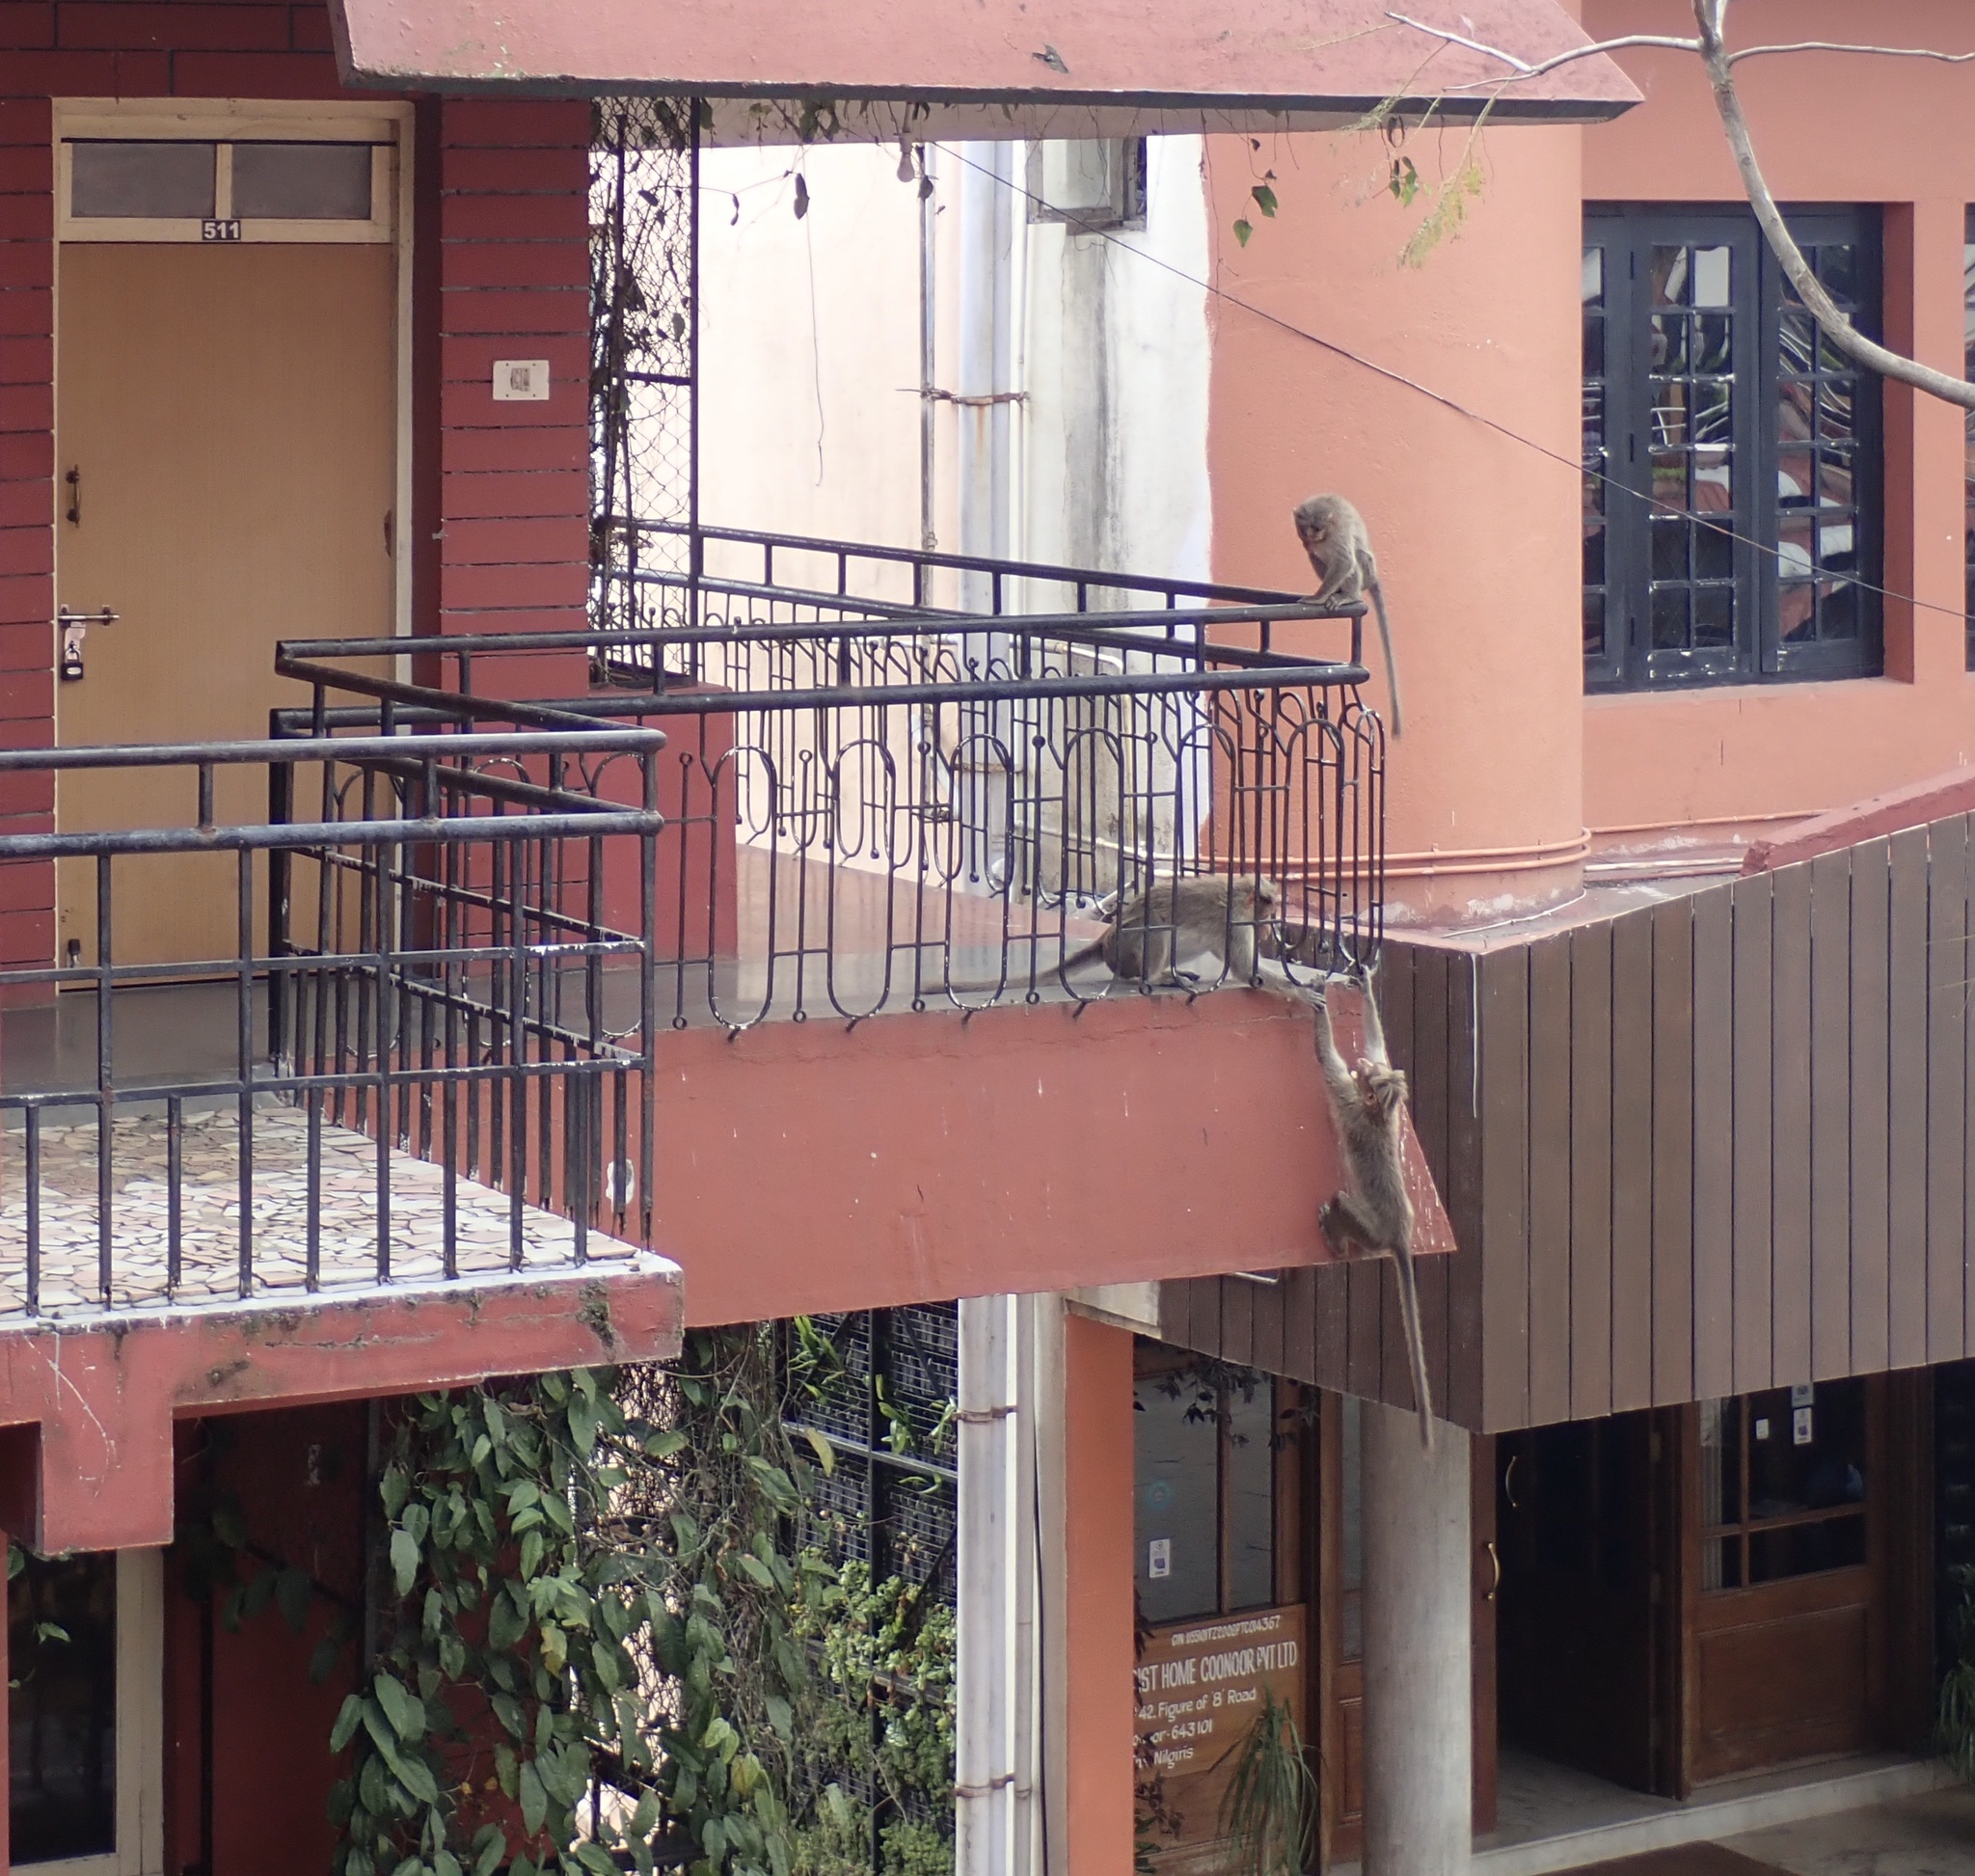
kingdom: Animalia
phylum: Chordata
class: Mammalia
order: Primates
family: Cercopithecidae
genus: Macaca
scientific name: Macaca radiata
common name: Bonnet macaque
